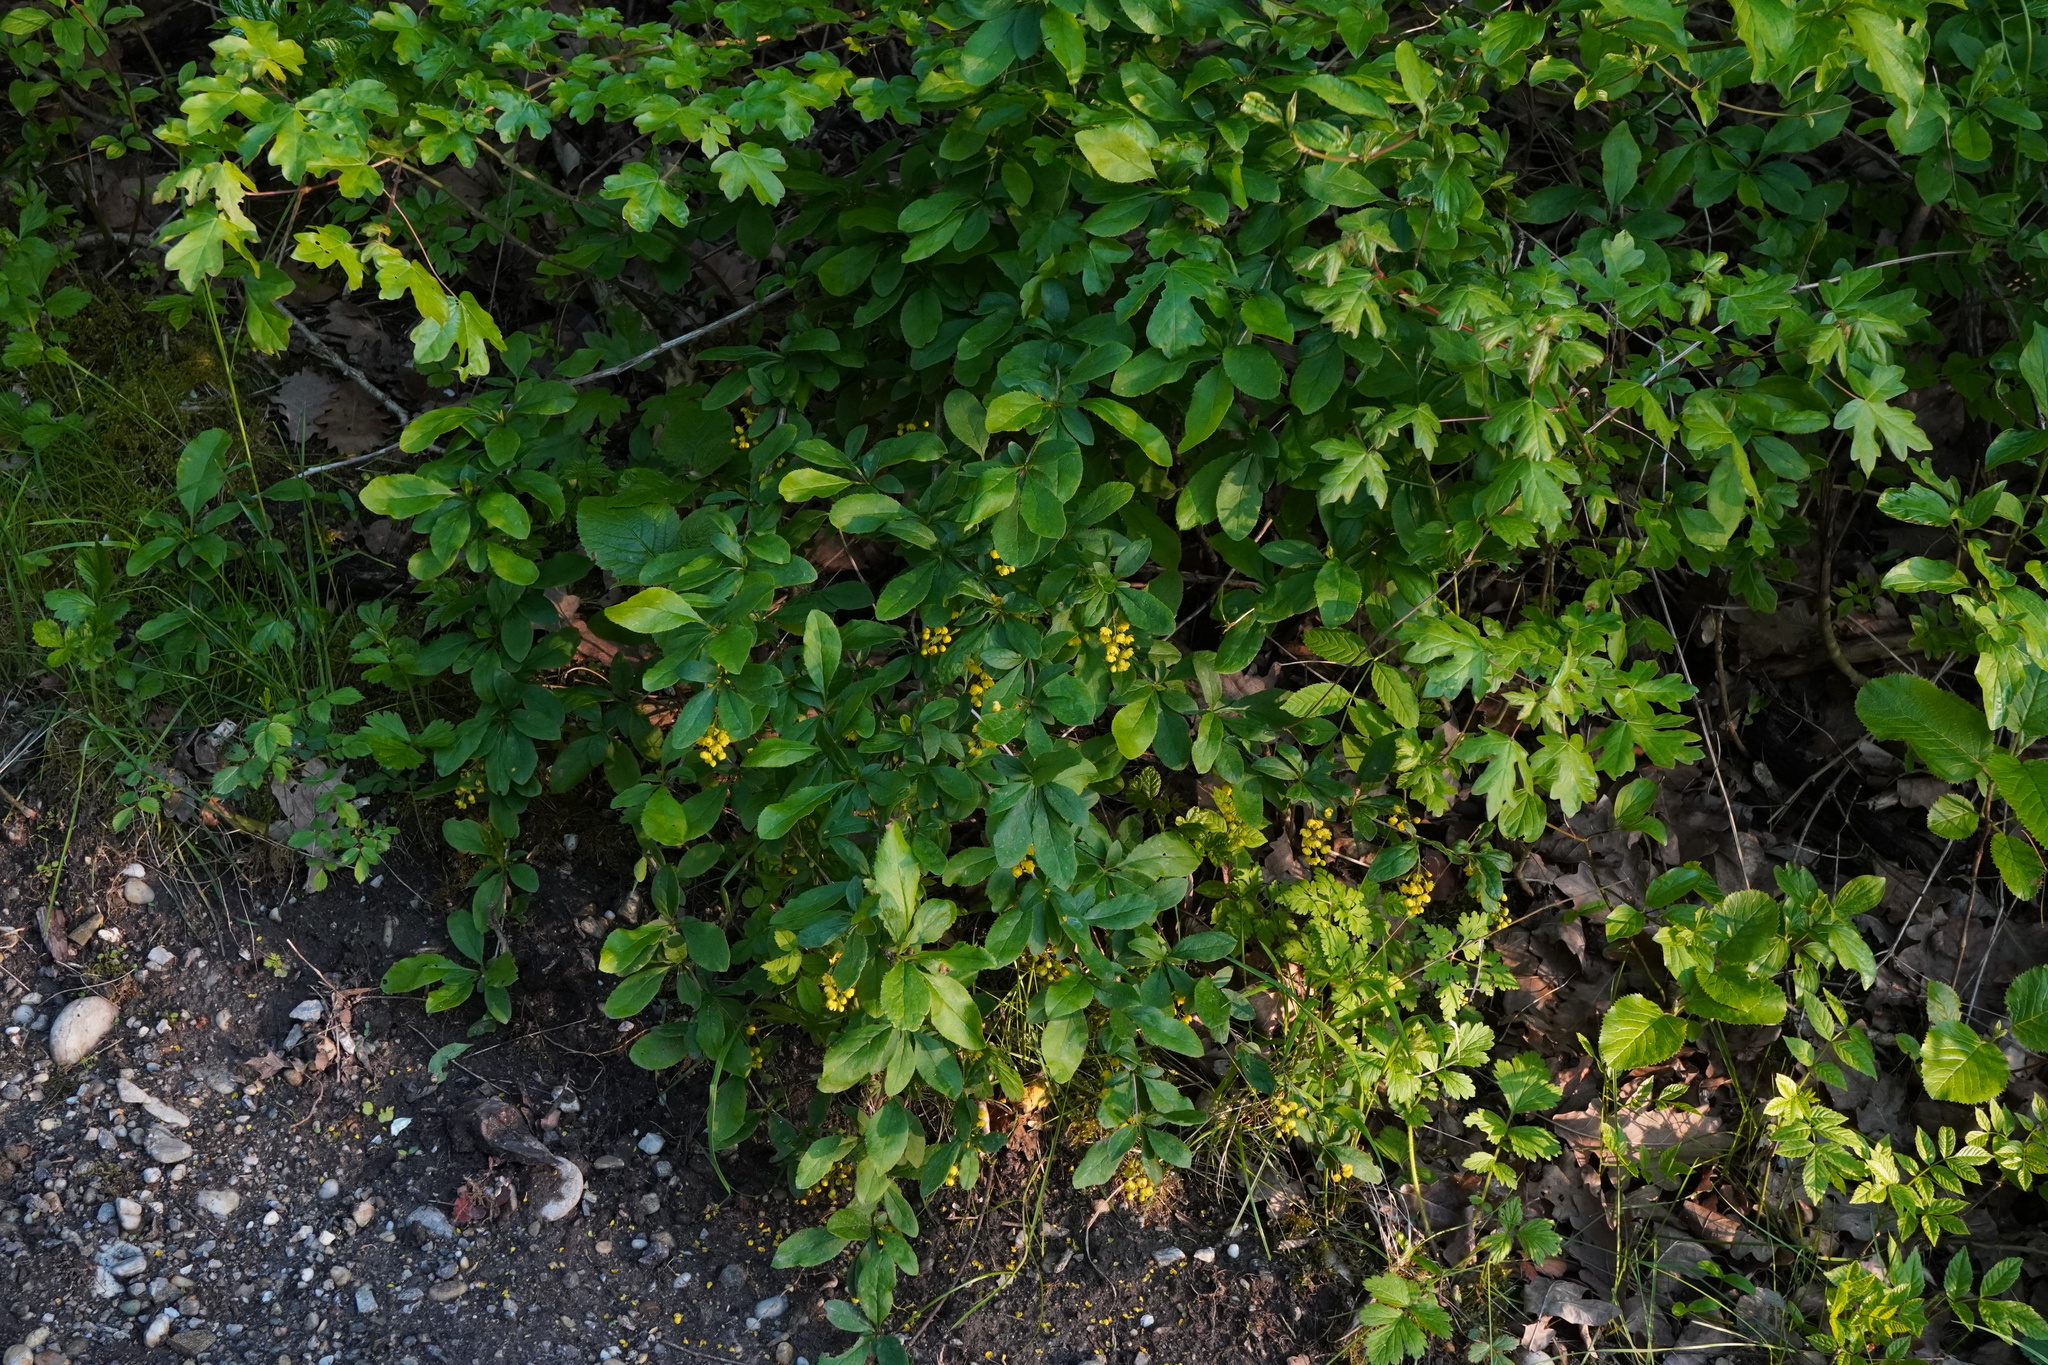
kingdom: Plantae
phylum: Tracheophyta
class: Magnoliopsida
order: Ranunculales
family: Berberidaceae
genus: Berberis
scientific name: Berberis vulgaris
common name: Barberry
